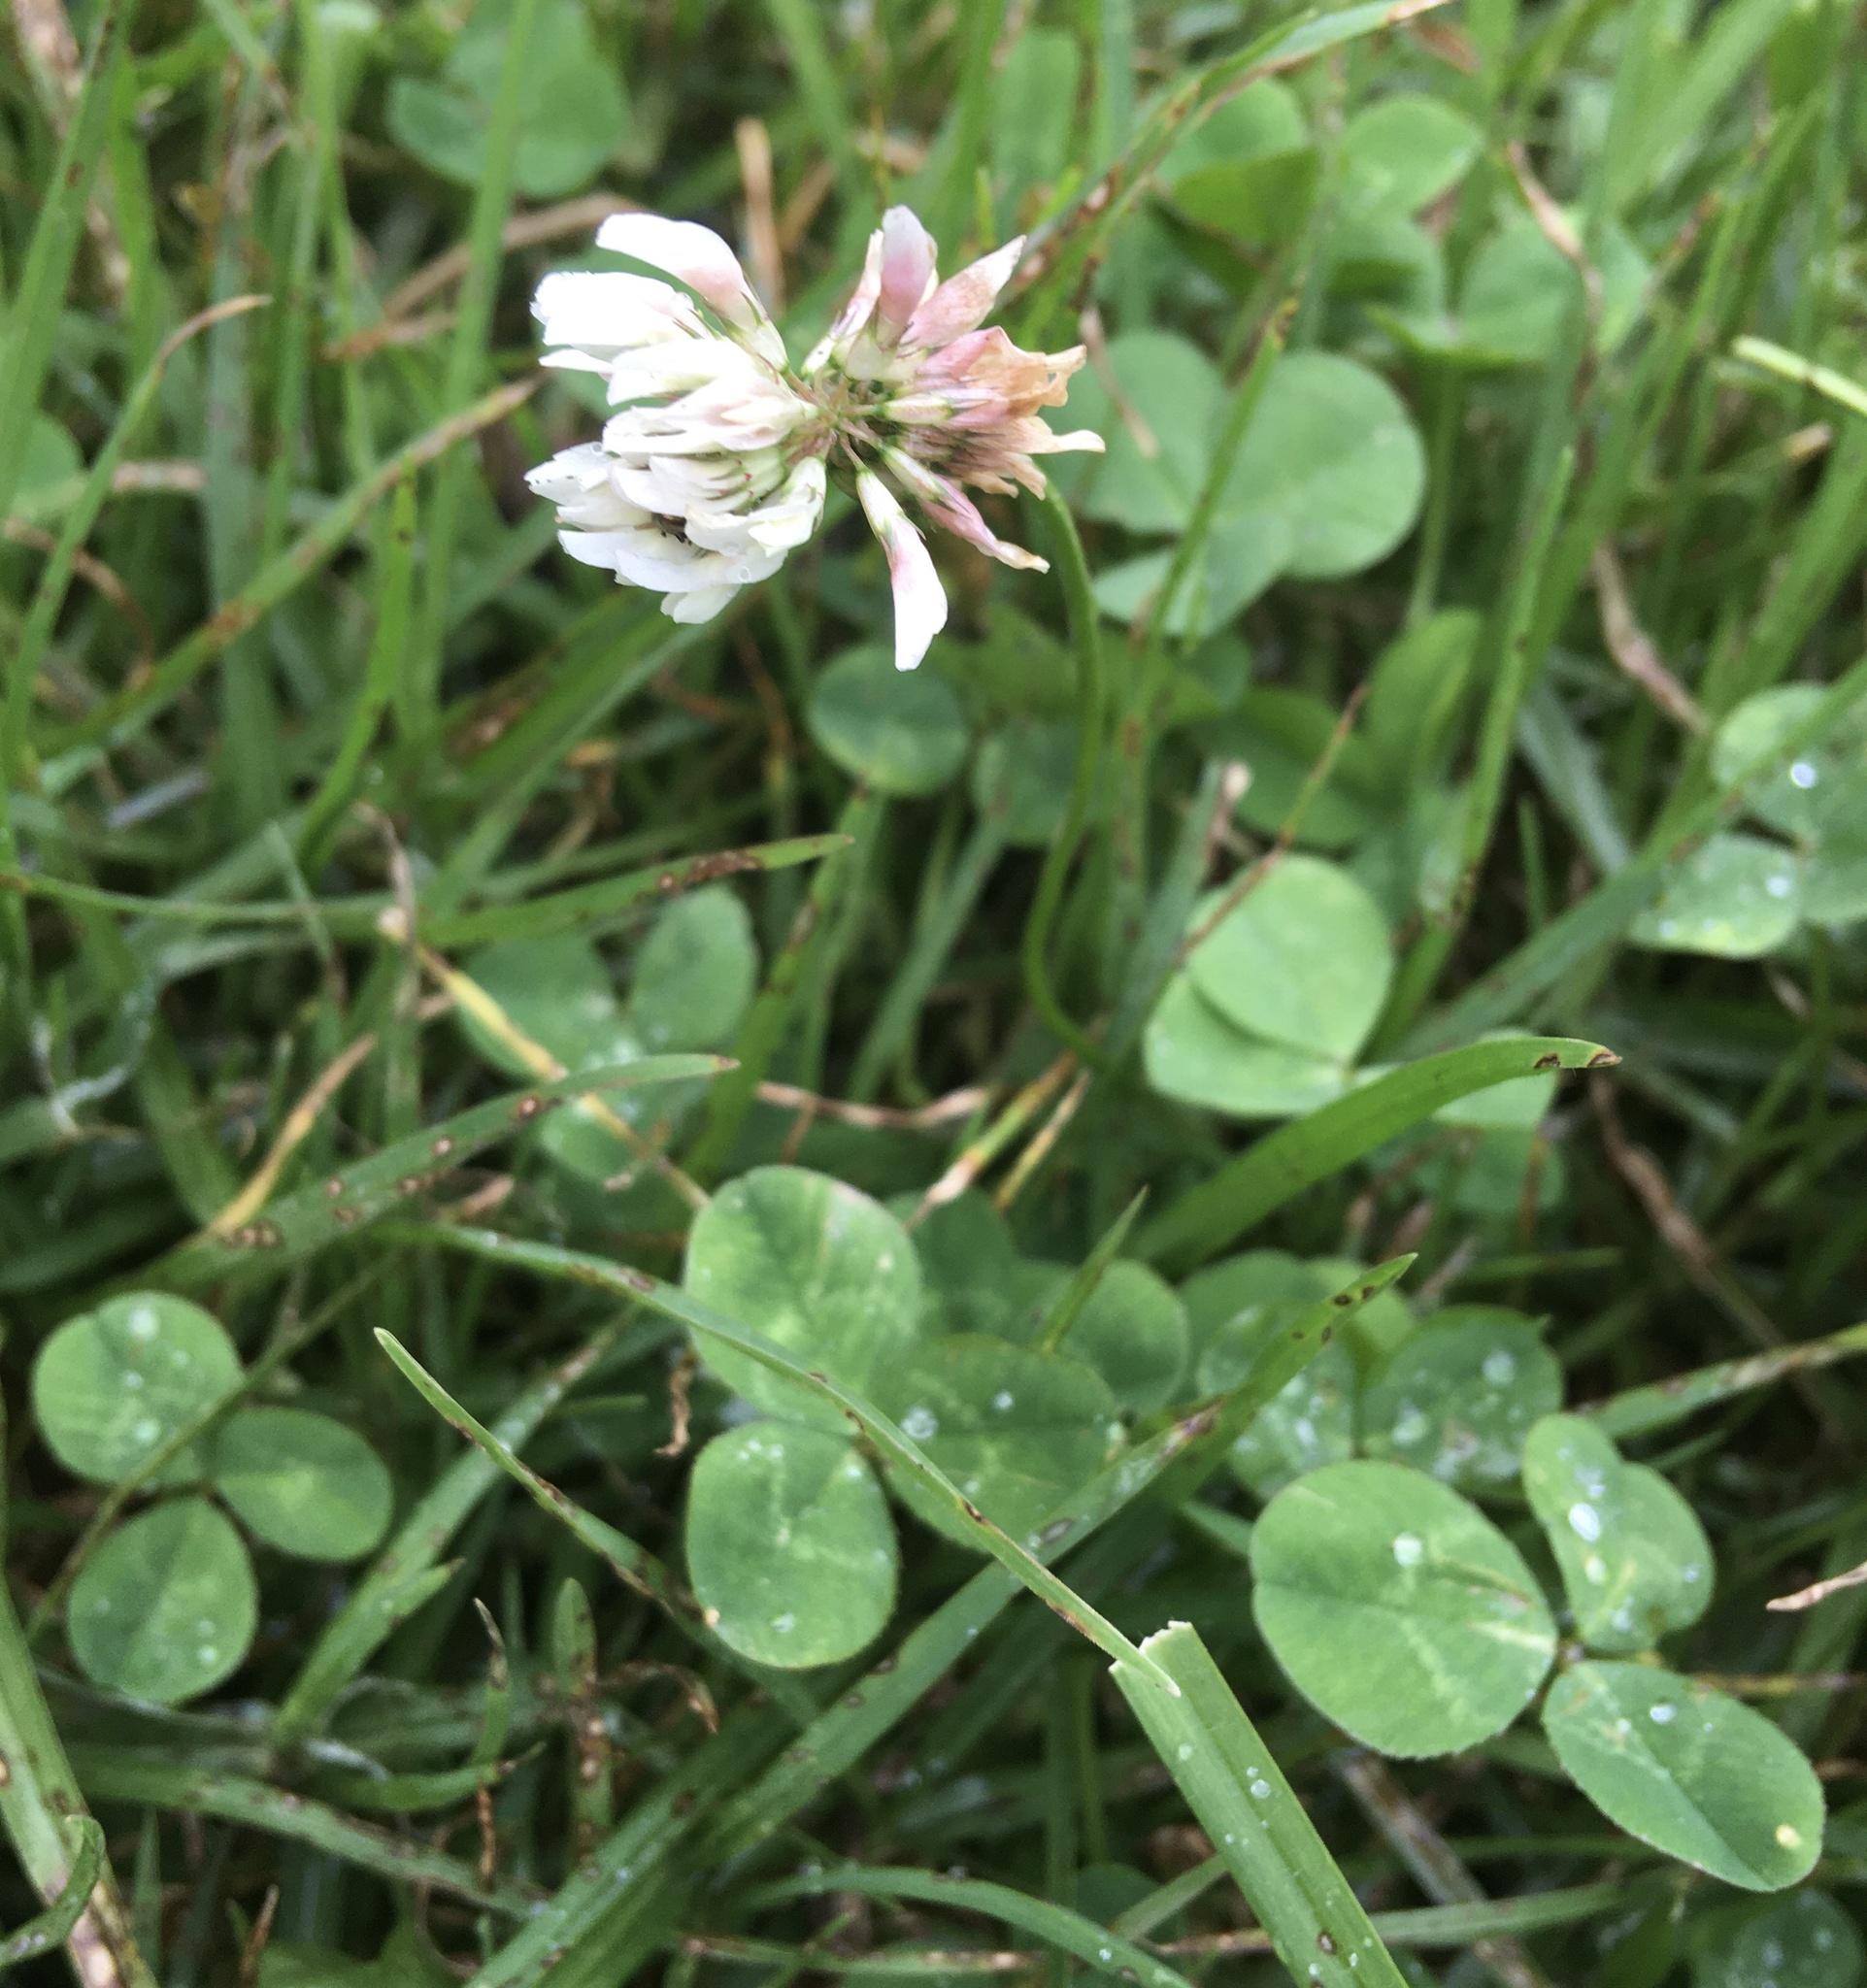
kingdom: Plantae
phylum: Tracheophyta
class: Magnoliopsida
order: Fabales
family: Fabaceae
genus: Trifolium
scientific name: Trifolium repens
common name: White clover
